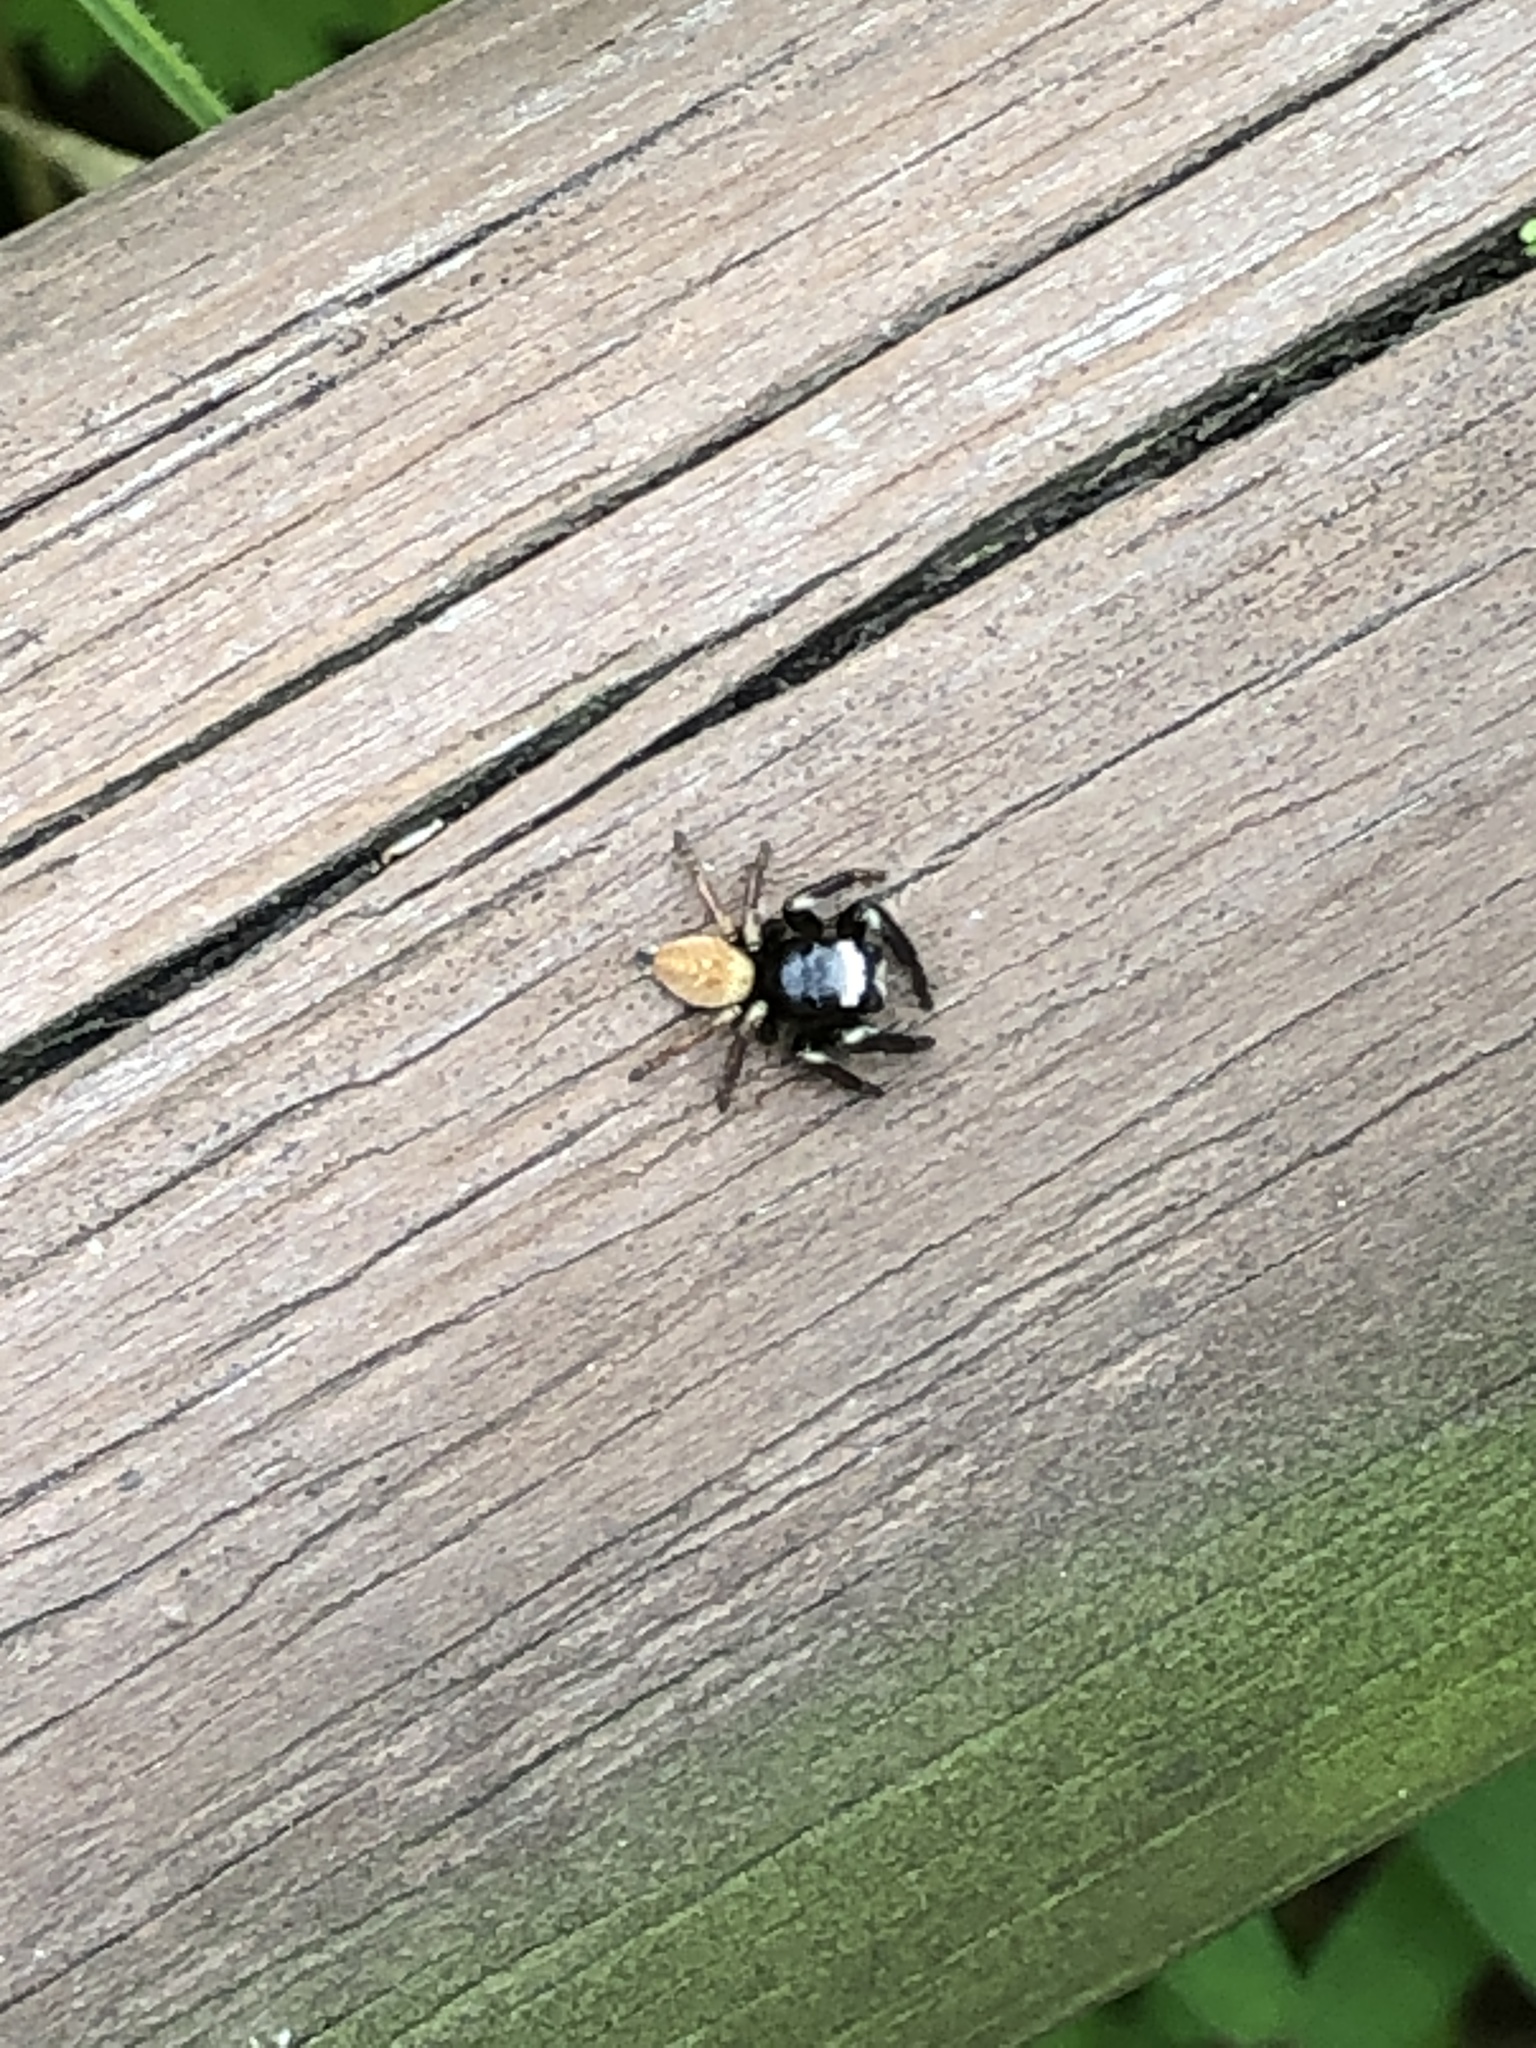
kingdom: Animalia
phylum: Arthropoda
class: Arachnida
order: Araneae
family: Salticidae
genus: Evarcha
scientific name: Evarcha albaria
